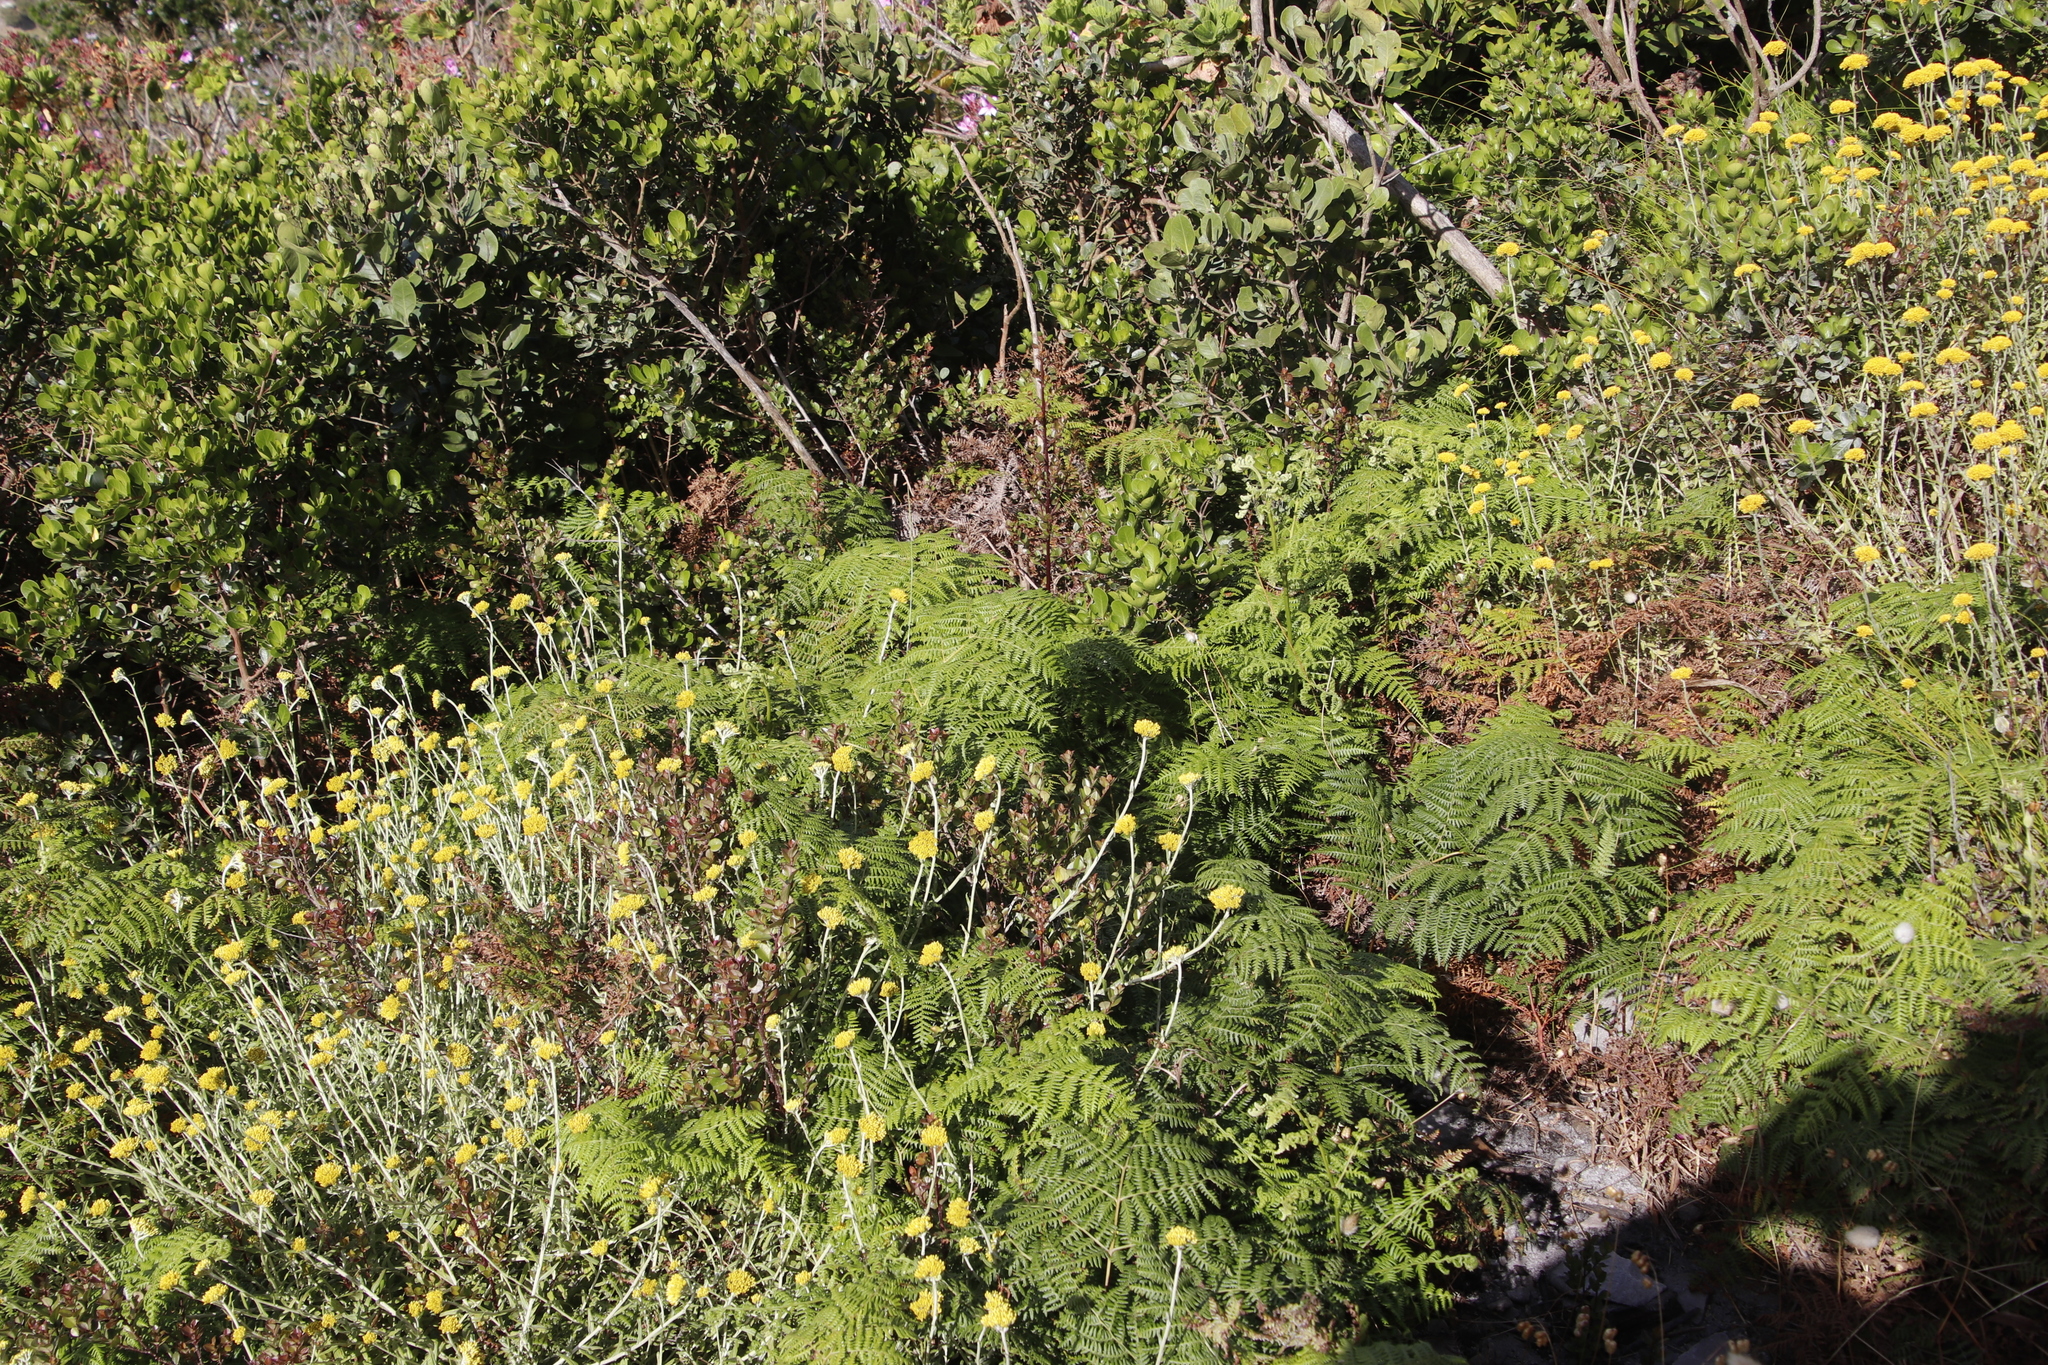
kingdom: Plantae
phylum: Tracheophyta
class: Polypodiopsida
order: Polypodiales
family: Dennstaedtiaceae
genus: Pteridium
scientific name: Pteridium aquilinum
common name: Bracken
